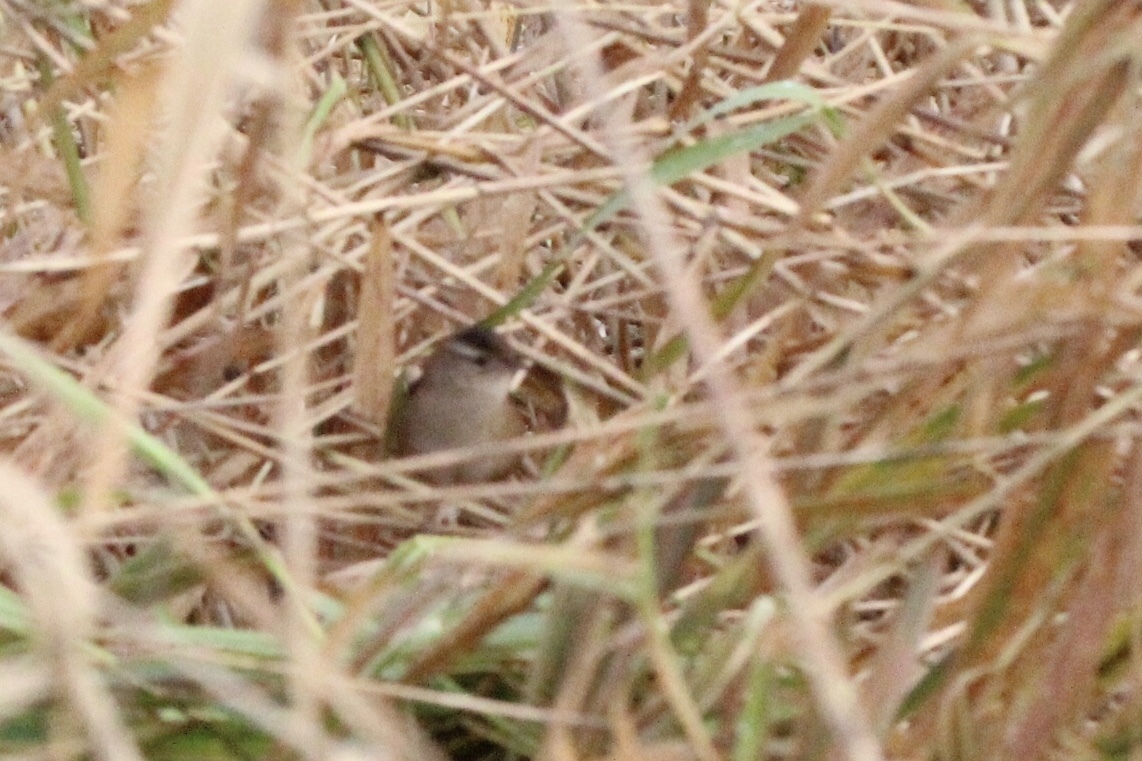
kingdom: Animalia
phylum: Chordata
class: Aves
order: Passeriformes
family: Troglodytidae
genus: Cistothorus
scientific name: Cistothorus palustris
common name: Marsh wren
